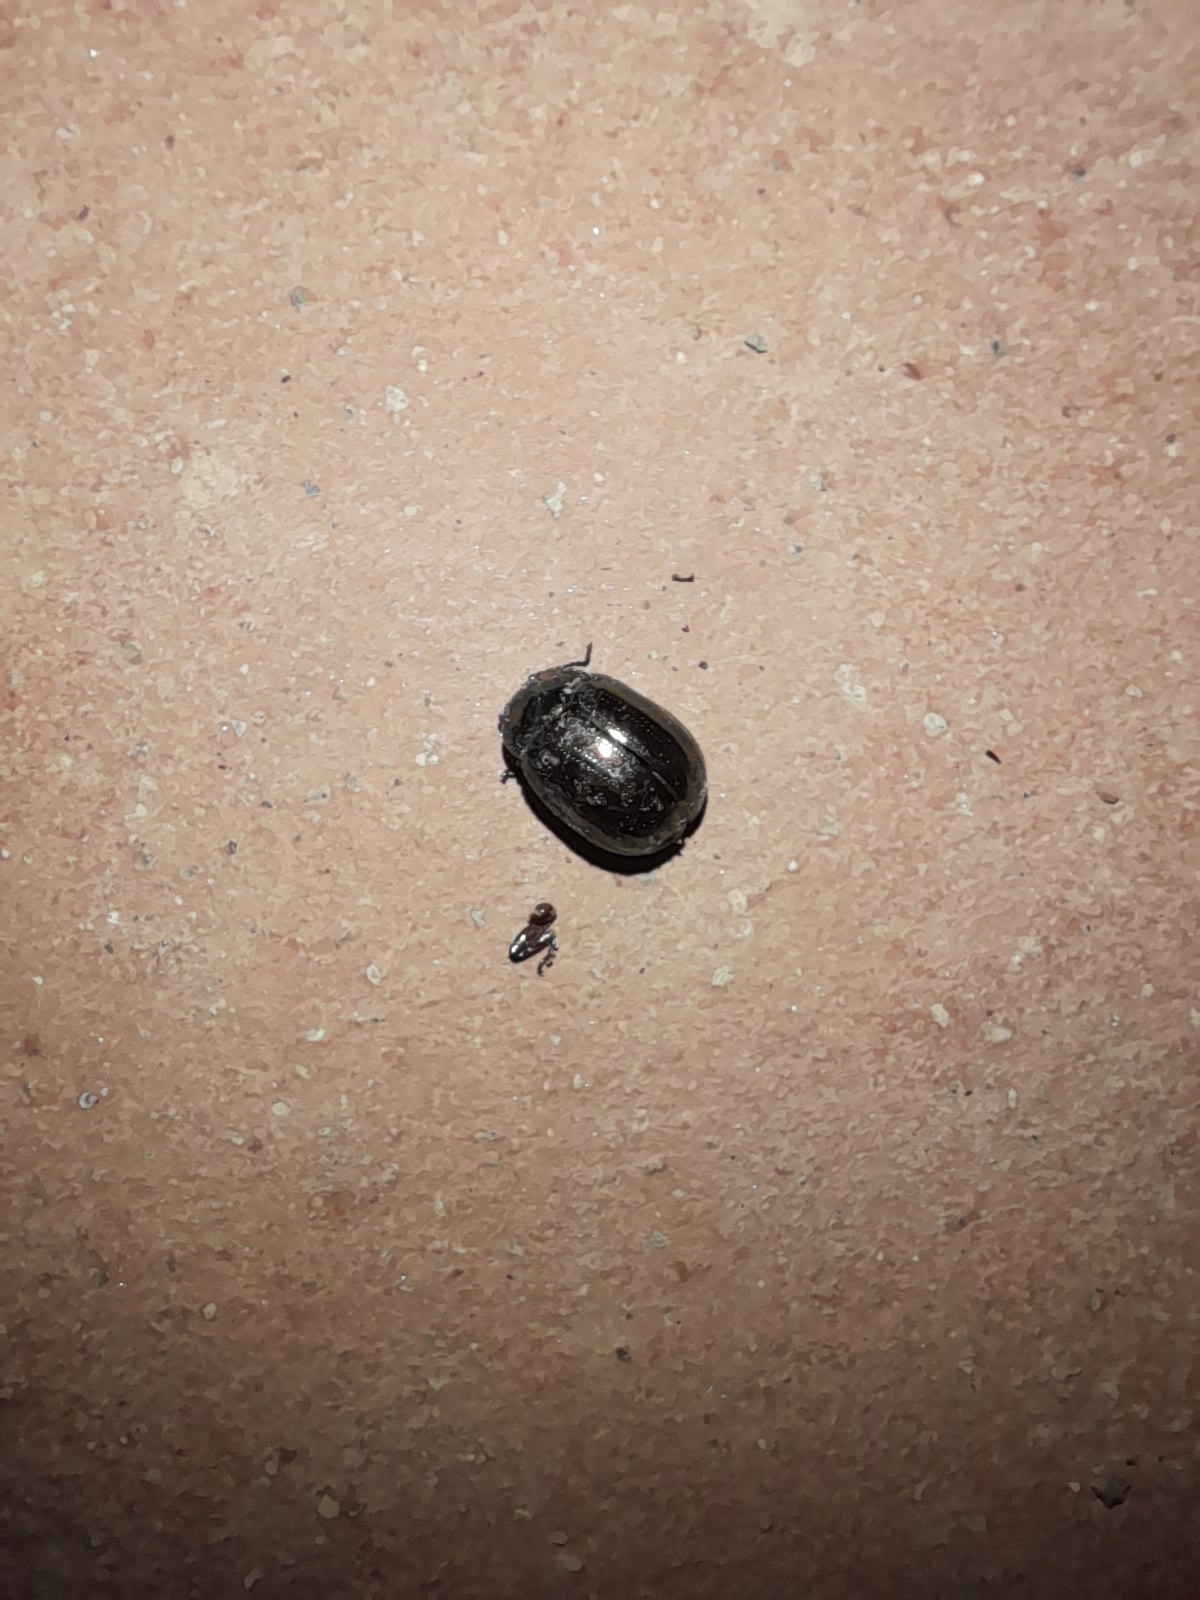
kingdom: Animalia
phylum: Arthropoda
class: Insecta
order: Coleoptera
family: Chrysomelidae
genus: Chrysolina
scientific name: Chrysolina americana
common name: Rosemary beetle
